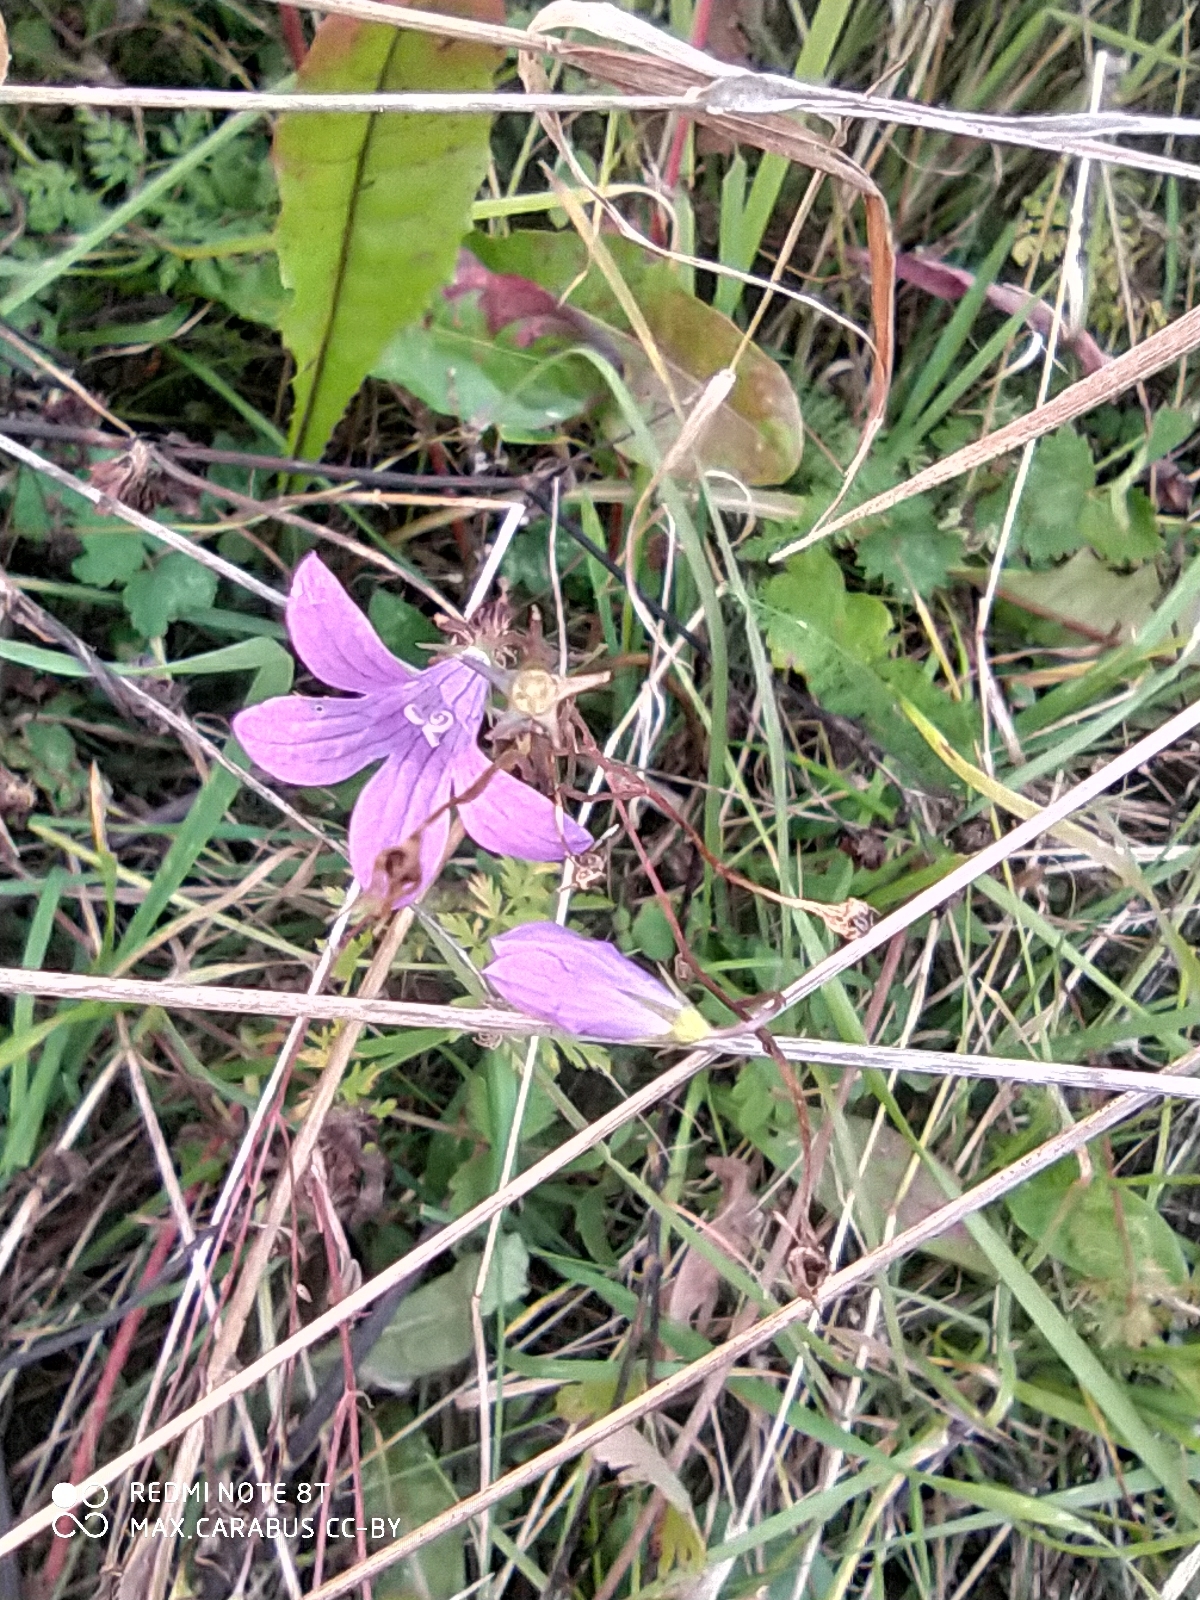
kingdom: Plantae
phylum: Tracheophyta
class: Magnoliopsida
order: Asterales
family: Campanulaceae
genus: Campanula
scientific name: Campanula patula
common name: Spreading bellflower
